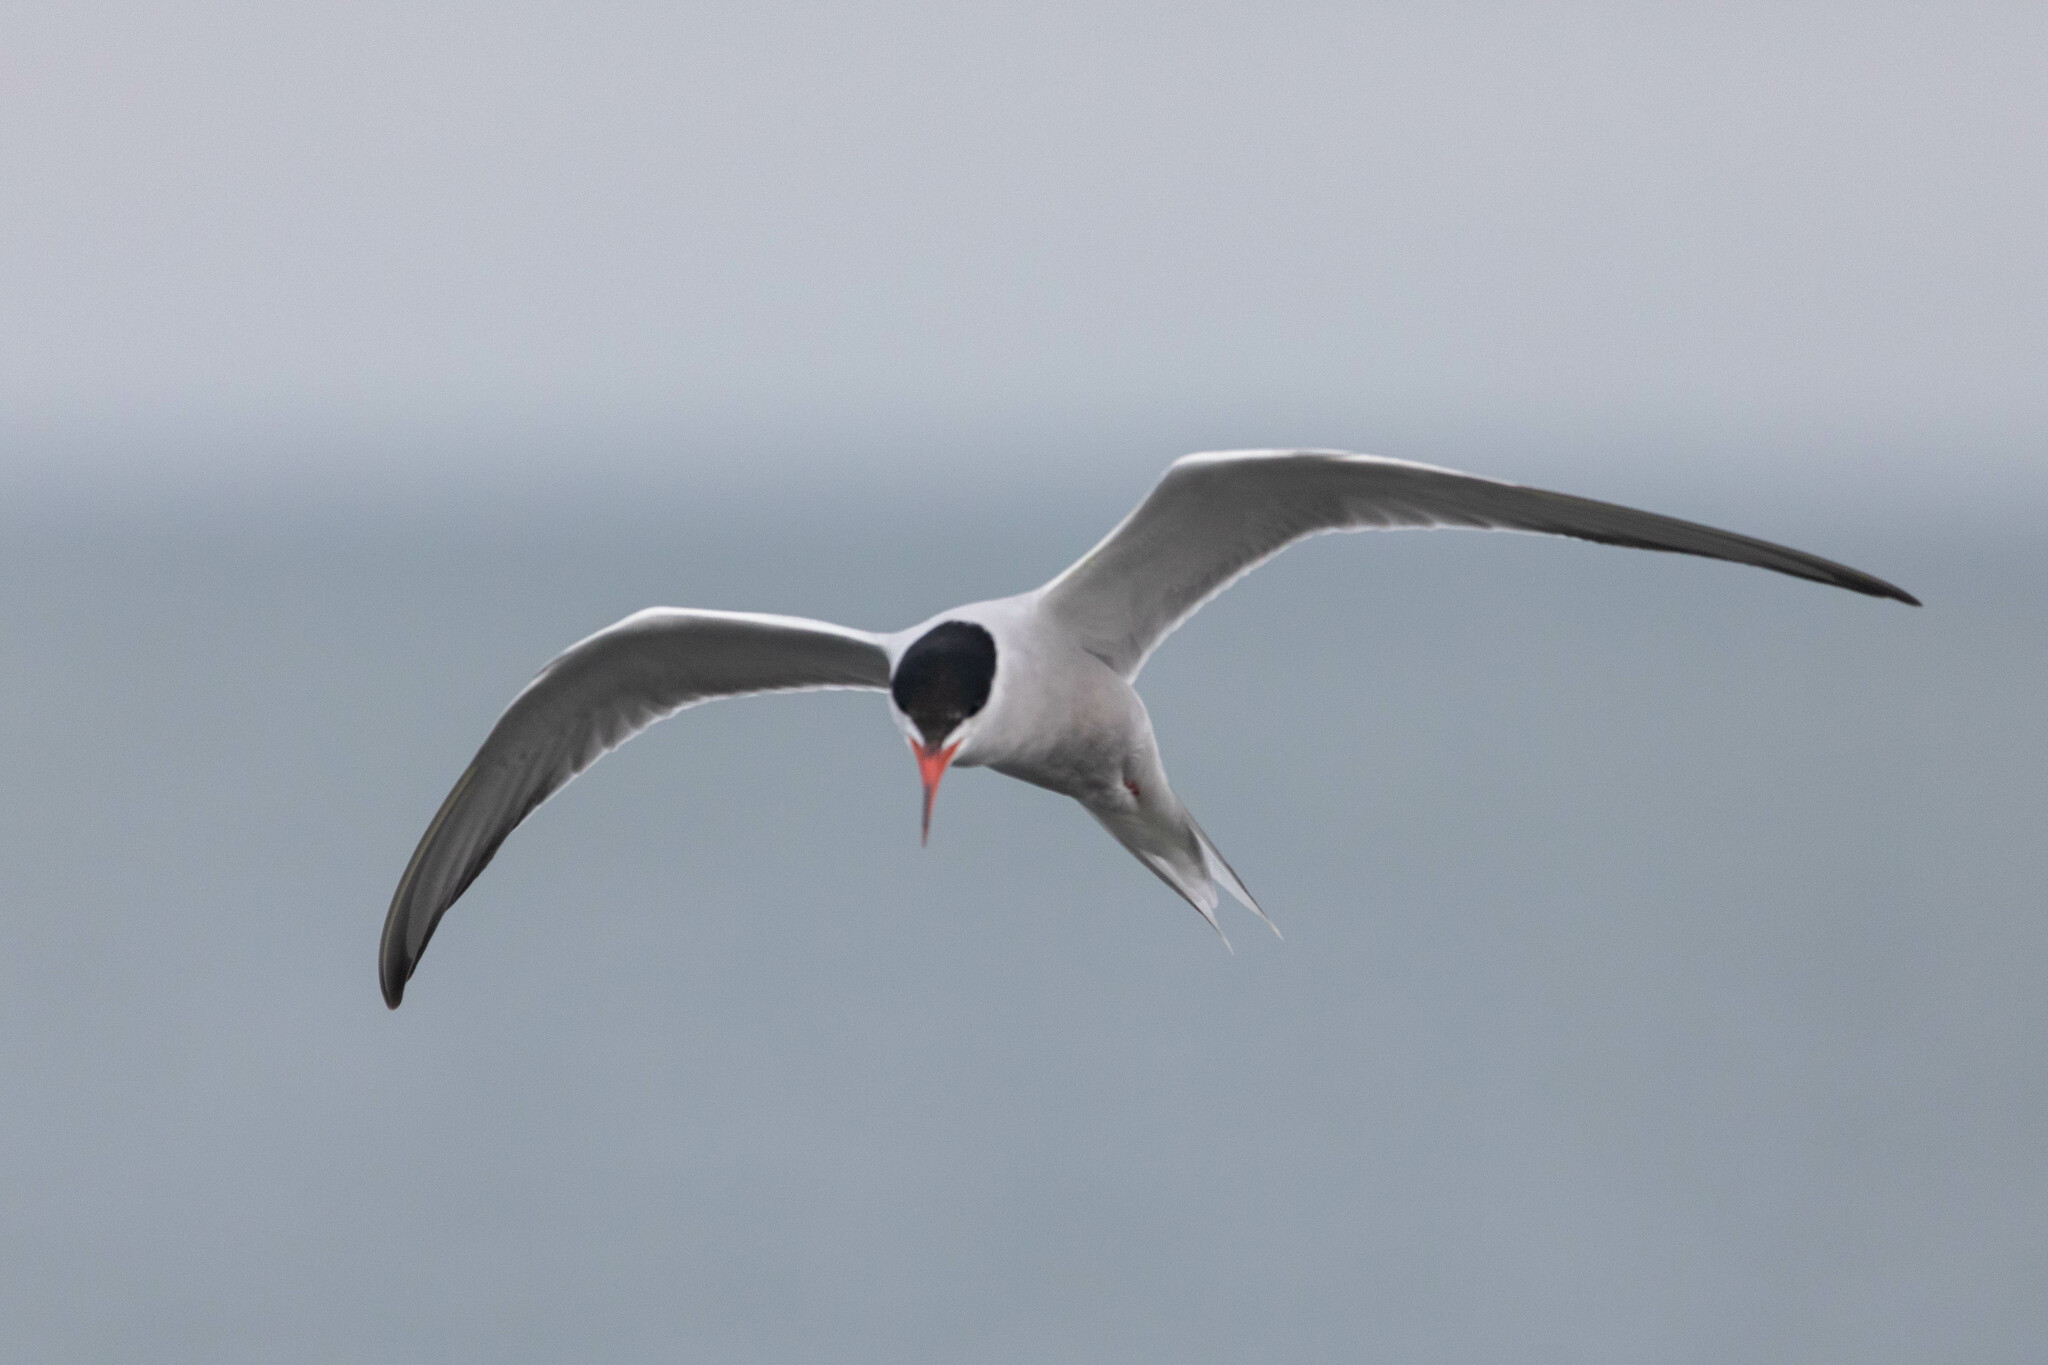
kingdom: Animalia
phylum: Chordata
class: Aves
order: Charadriiformes
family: Laridae
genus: Sterna
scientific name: Sterna hirundo
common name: Common tern
